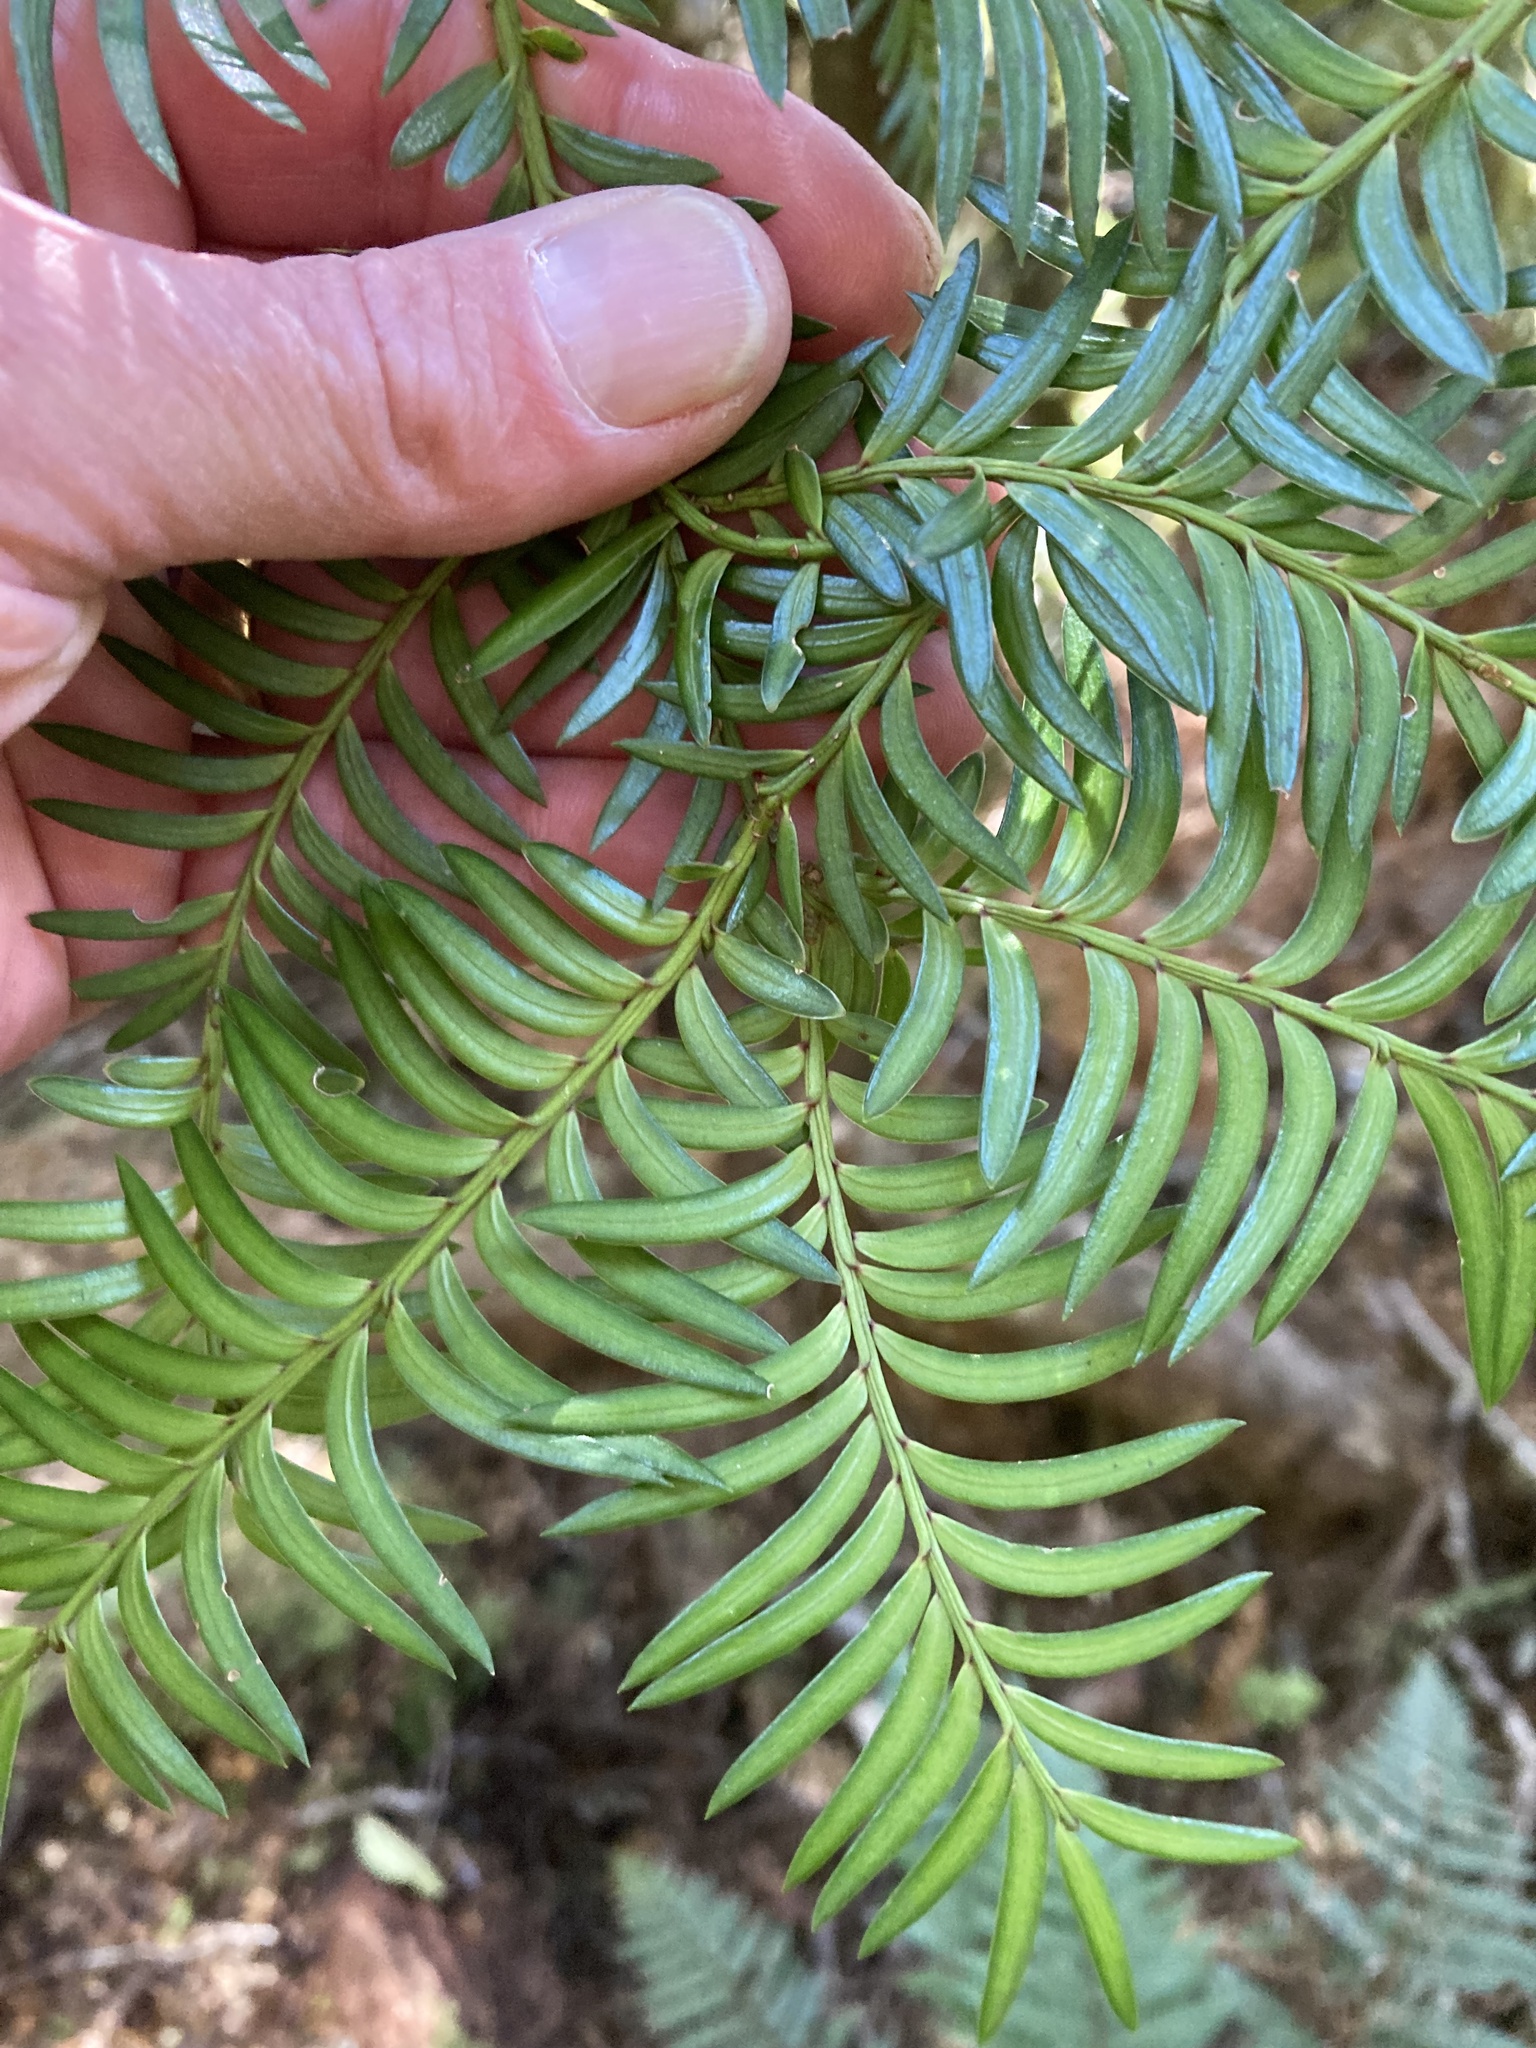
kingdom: Plantae
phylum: Tracheophyta
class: Pinopsida
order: Pinales
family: Podocarpaceae
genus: Prumnopitys
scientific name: Prumnopitys ferruginea
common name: Brown pine
